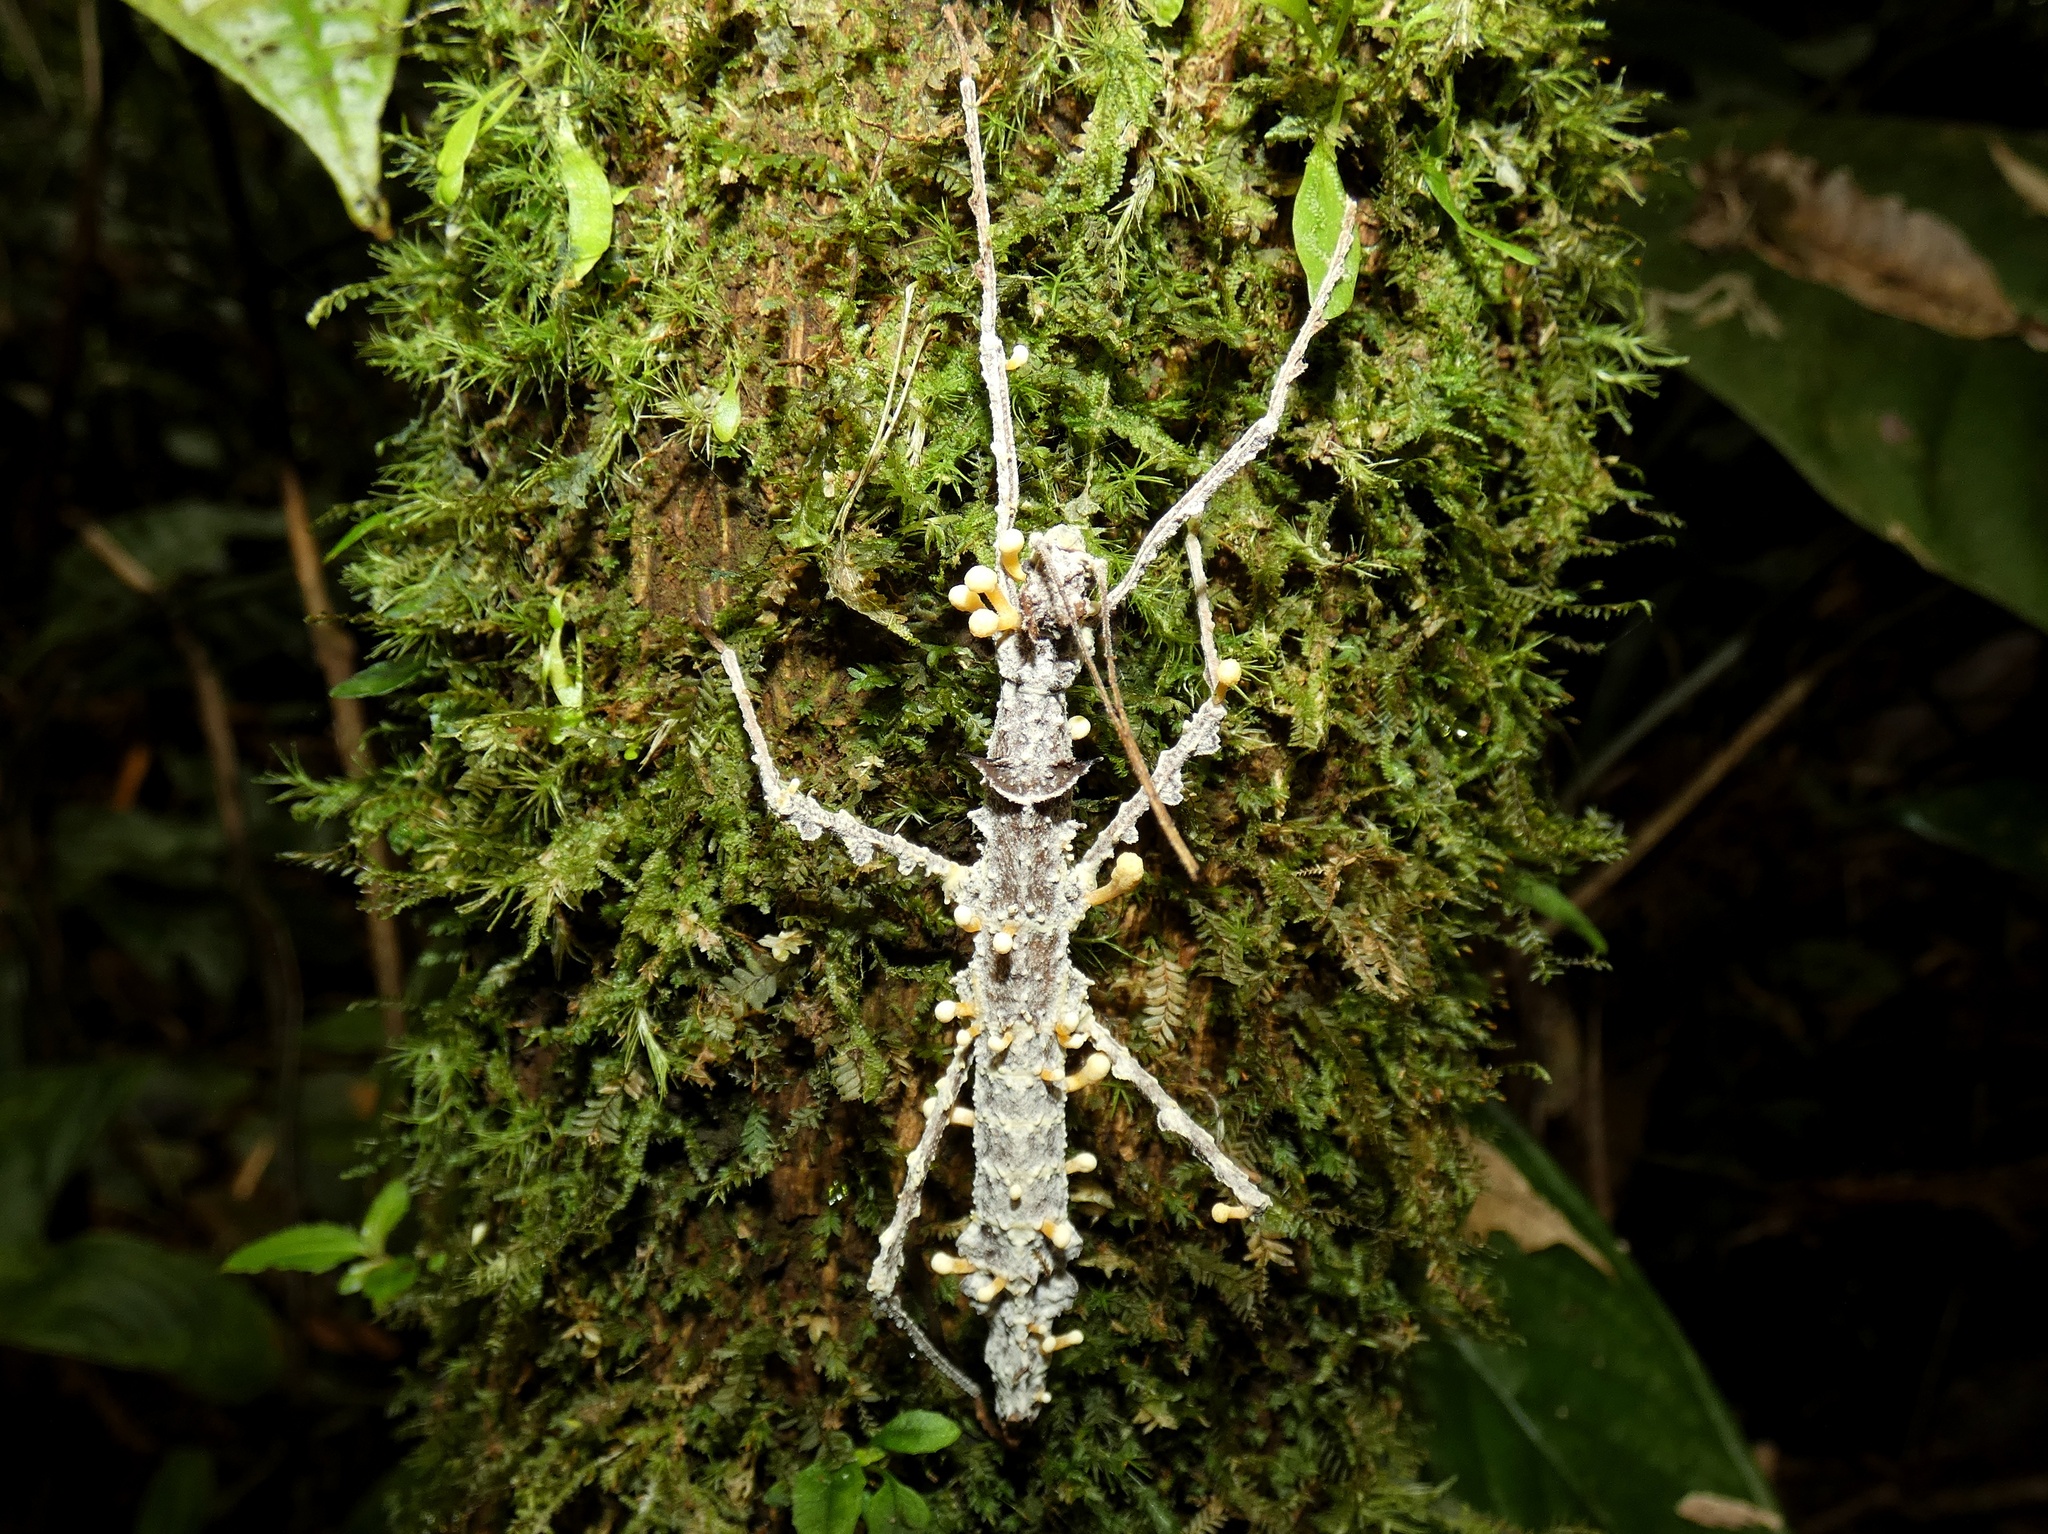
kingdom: Fungi
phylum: Ascomycota
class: Sordariomycetes
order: Hypocreales
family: Cordycipitaceae
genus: Beauveria
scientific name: Beauveria diapheromeriphila
